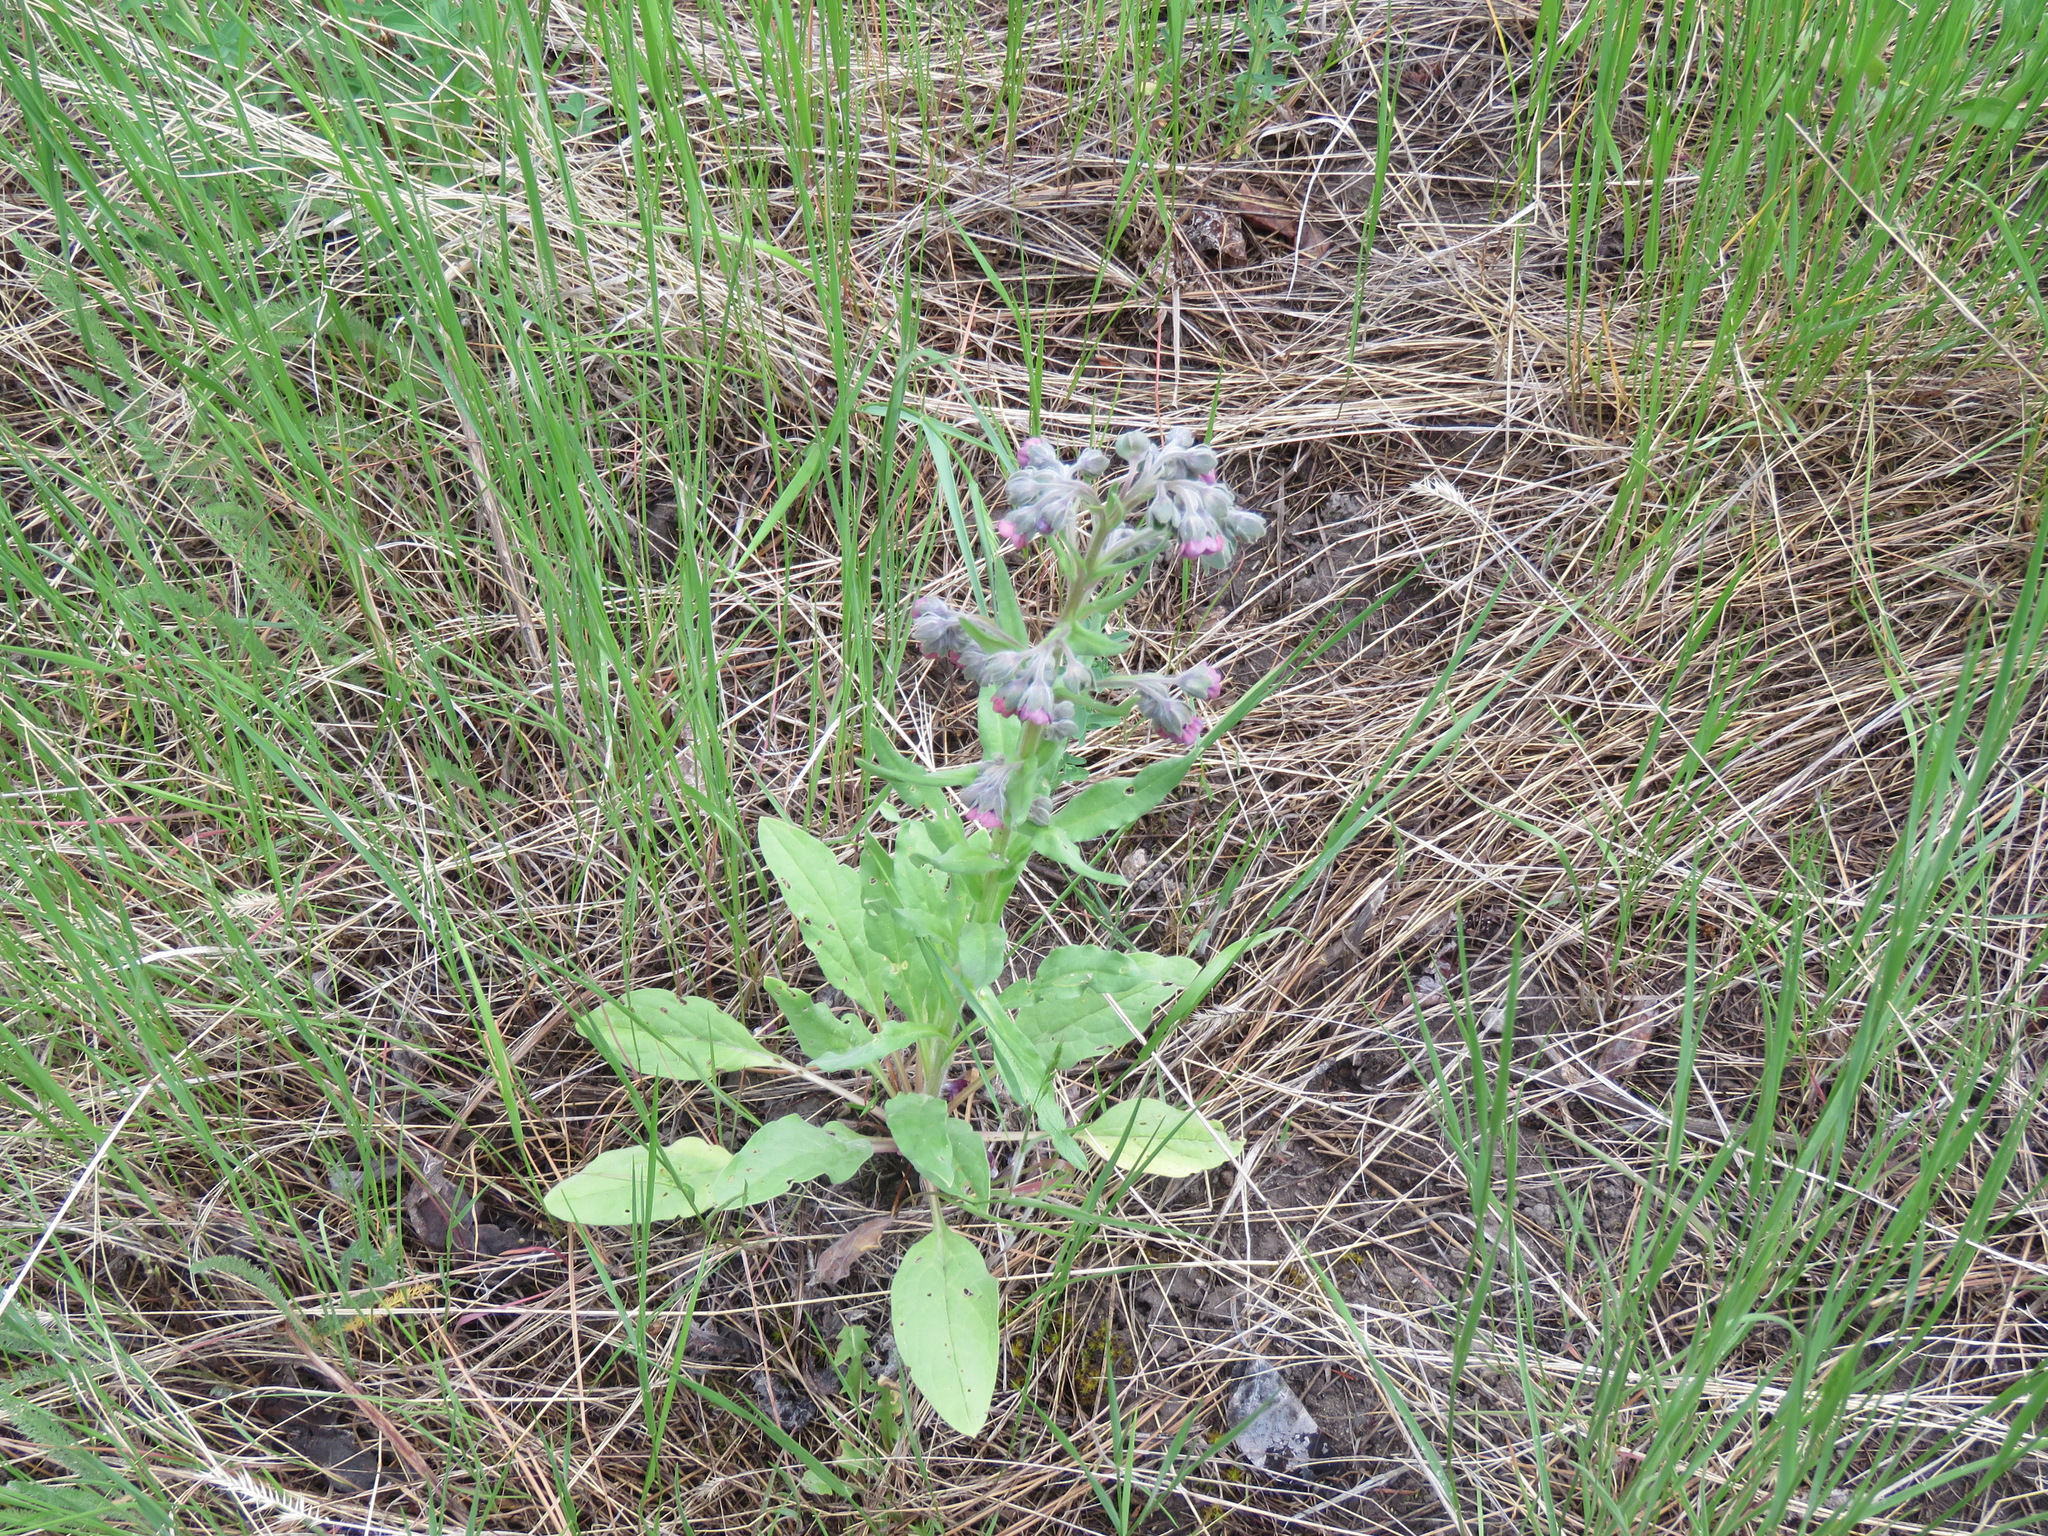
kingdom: Plantae
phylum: Tracheophyta
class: Magnoliopsida
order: Boraginales
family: Boraginaceae
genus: Cynoglossum
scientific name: Cynoglossum officinale
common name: Hound's-tongue
